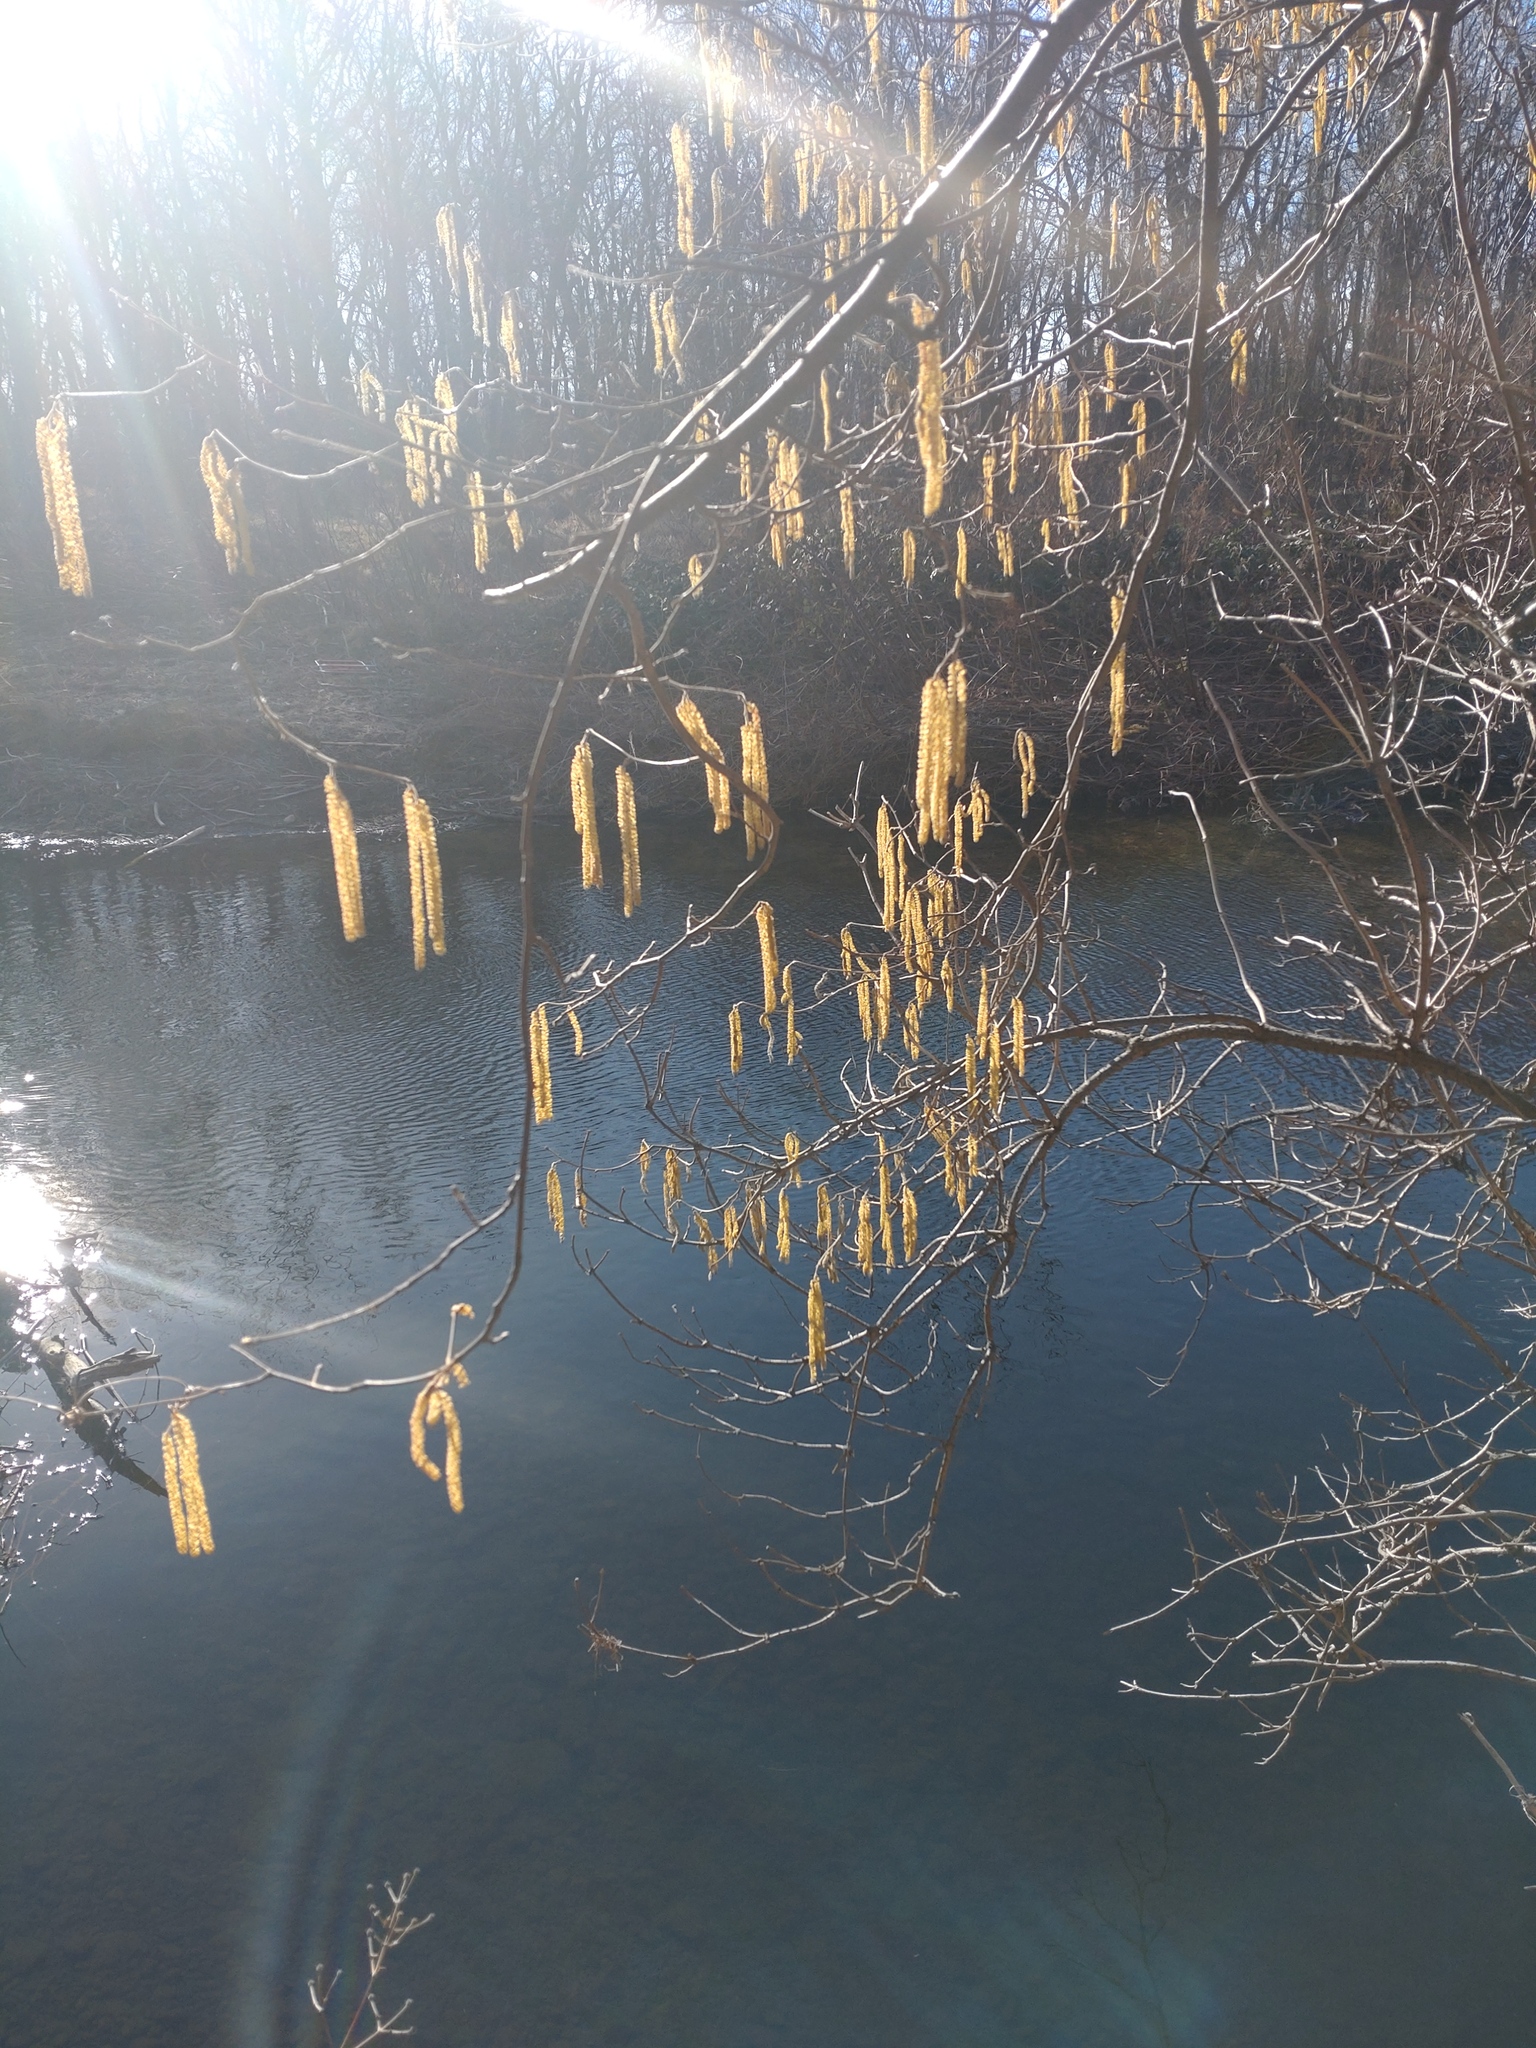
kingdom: Plantae
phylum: Tracheophyta
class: Magnoliopsida
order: Fagales
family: Betulaceae
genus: Corylus
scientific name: Corylus avellana
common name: European hazel
